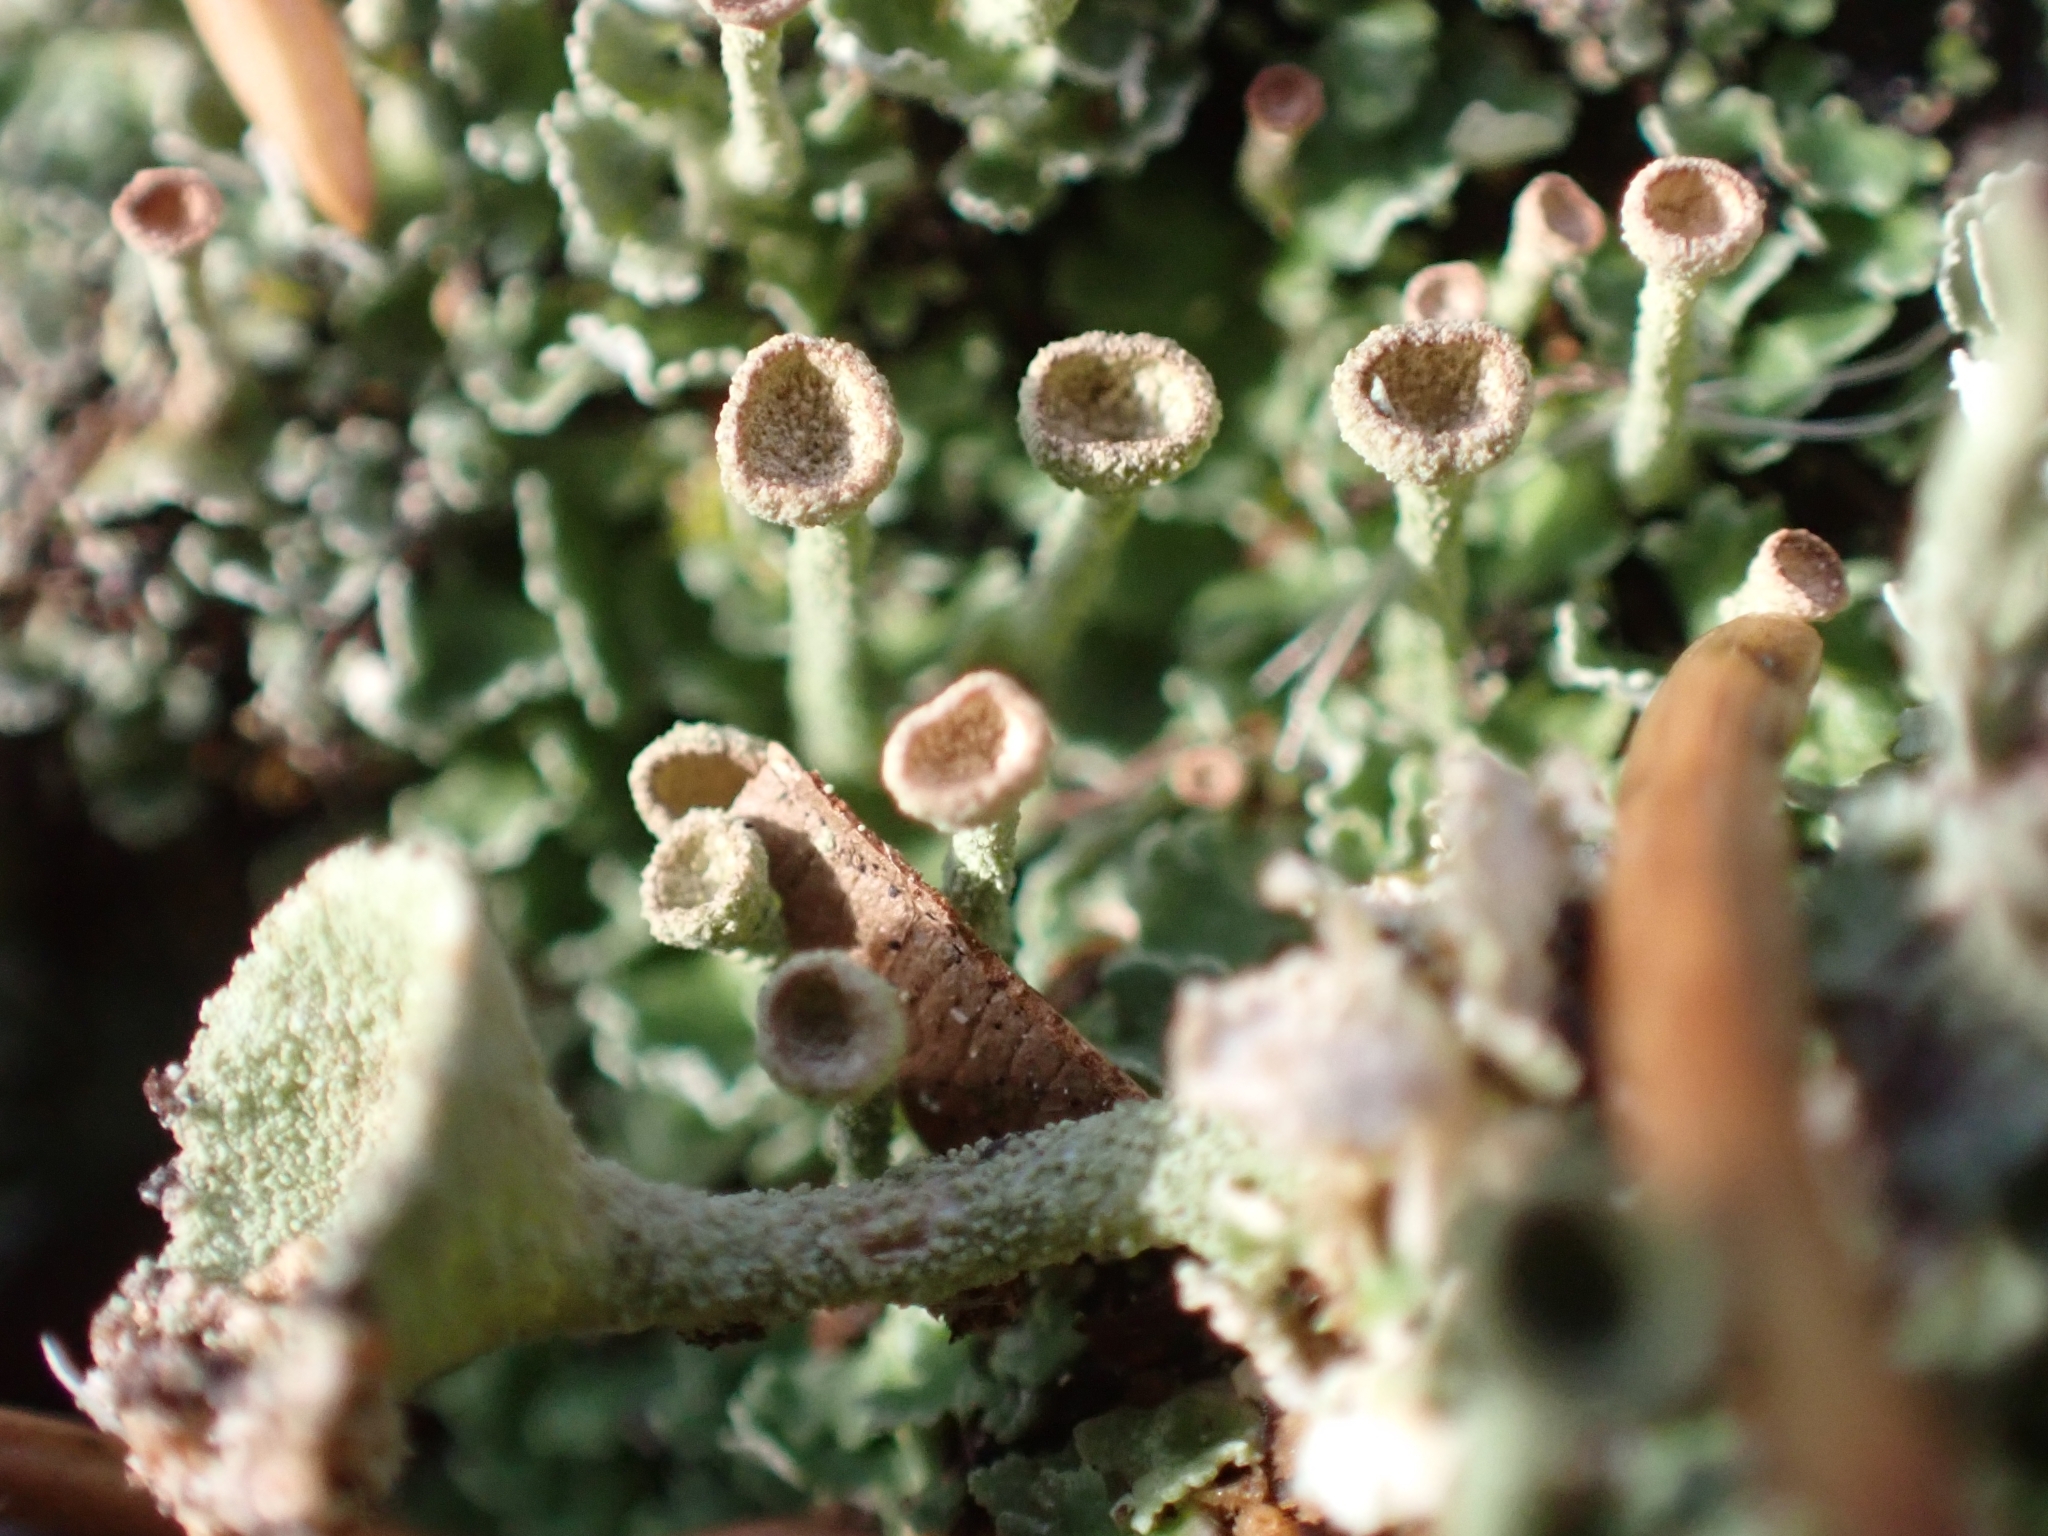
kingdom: Fungi
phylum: Ascomycota
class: Lecanoromycetes
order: Lecanorales
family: Cladoniaceae
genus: Cladonia
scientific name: Cladonia fimbriata
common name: Powdered trumpet lichen
